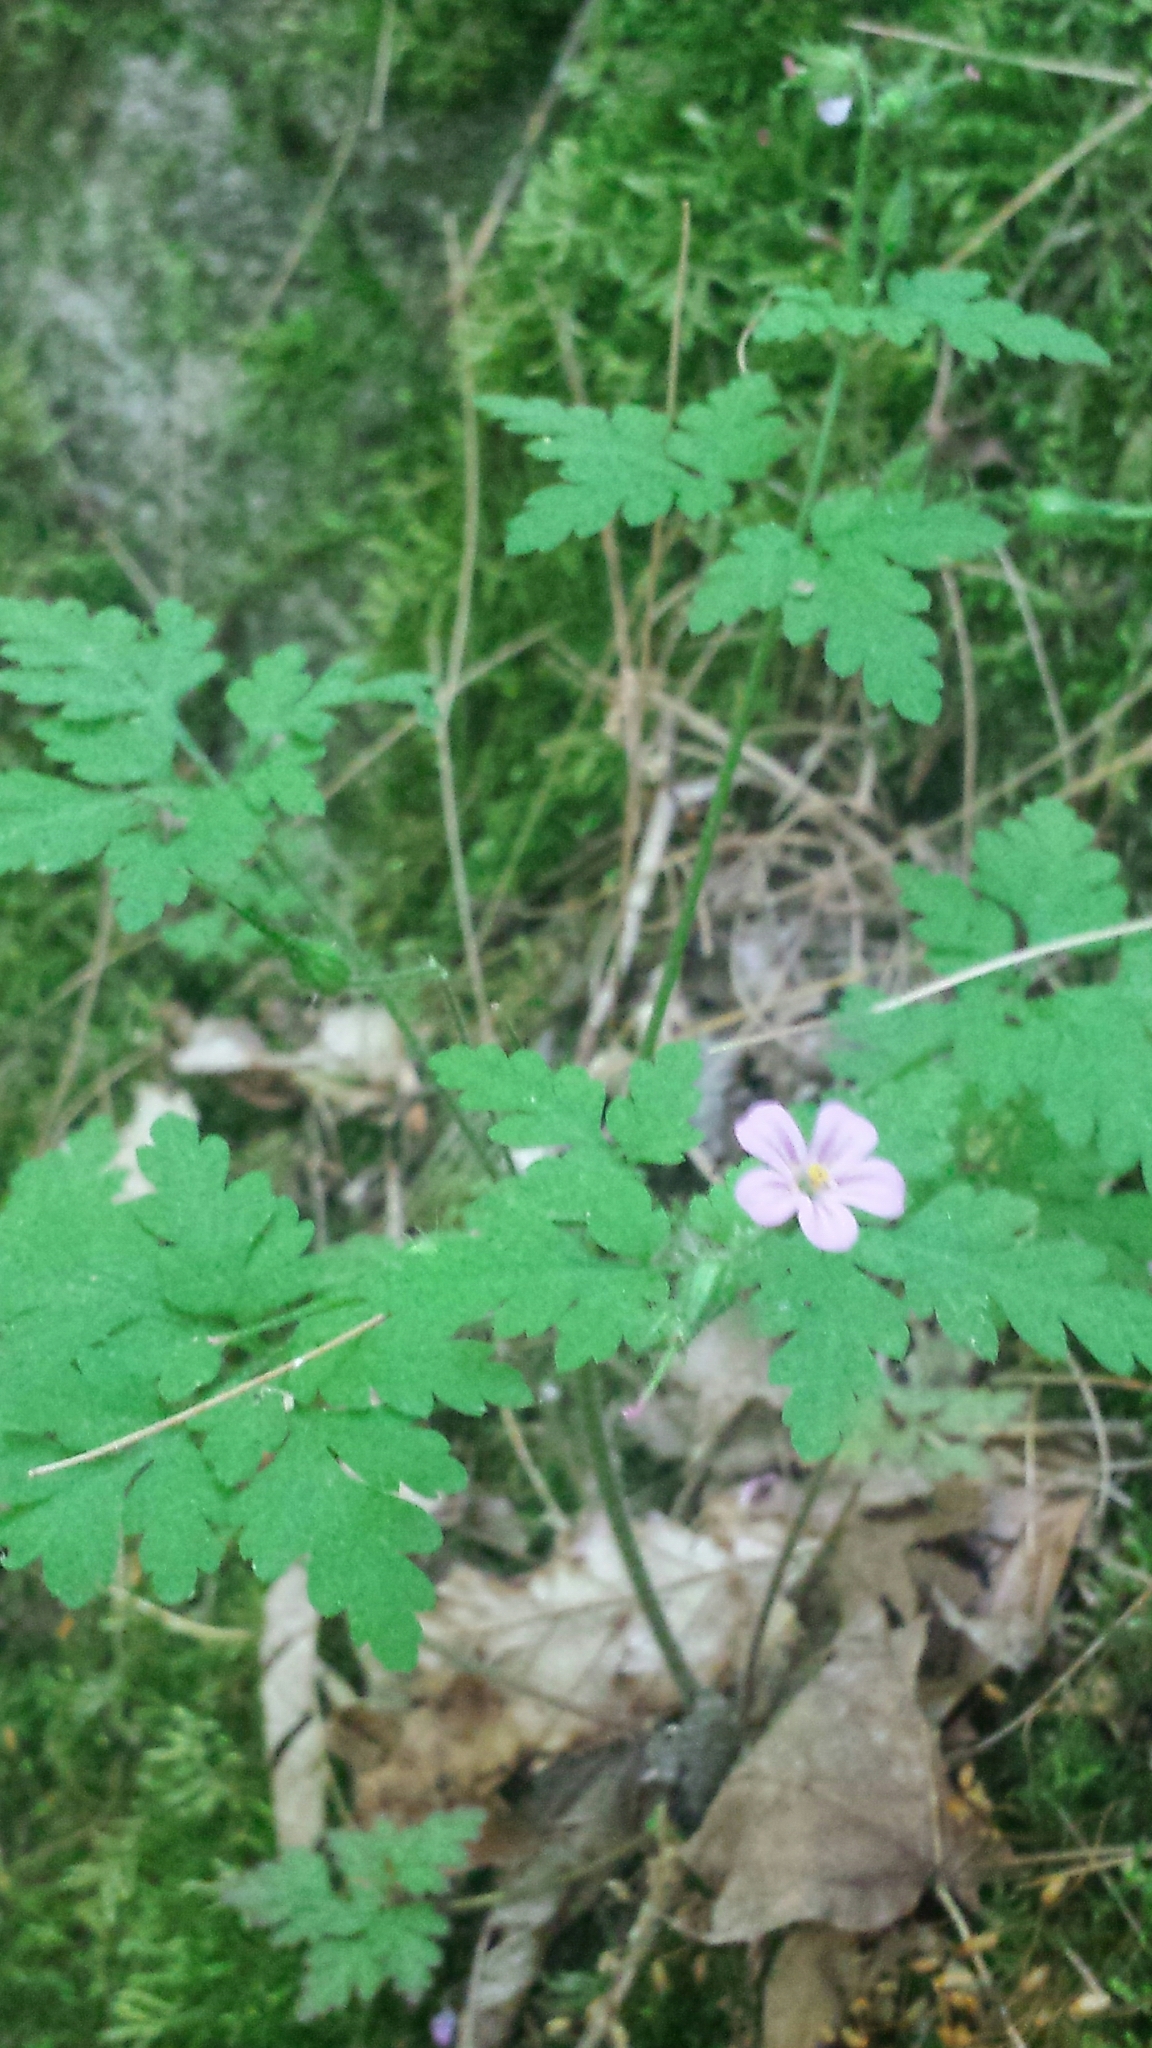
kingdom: Plantae
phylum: Tracheophyta
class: Magnoliopsida
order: Geraniales
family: Geraniaceae
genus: Geranium
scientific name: Geranium robertianum
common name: Herb-robert
